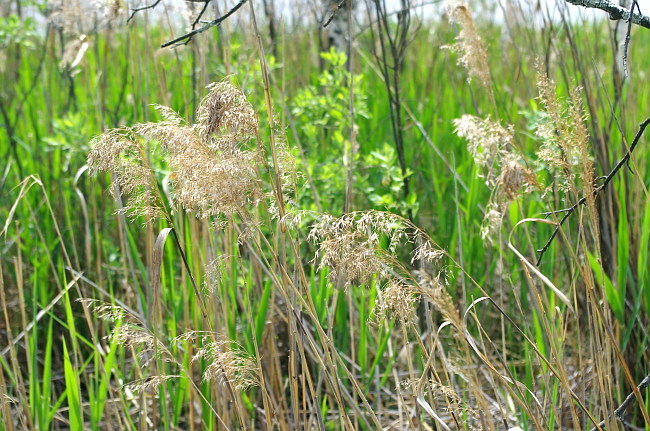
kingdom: Plantae
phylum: Tracheophyta
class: Liliopsida
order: Poales
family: Poaceae
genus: Phragmites
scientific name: Phragmites australis
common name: Common reed
